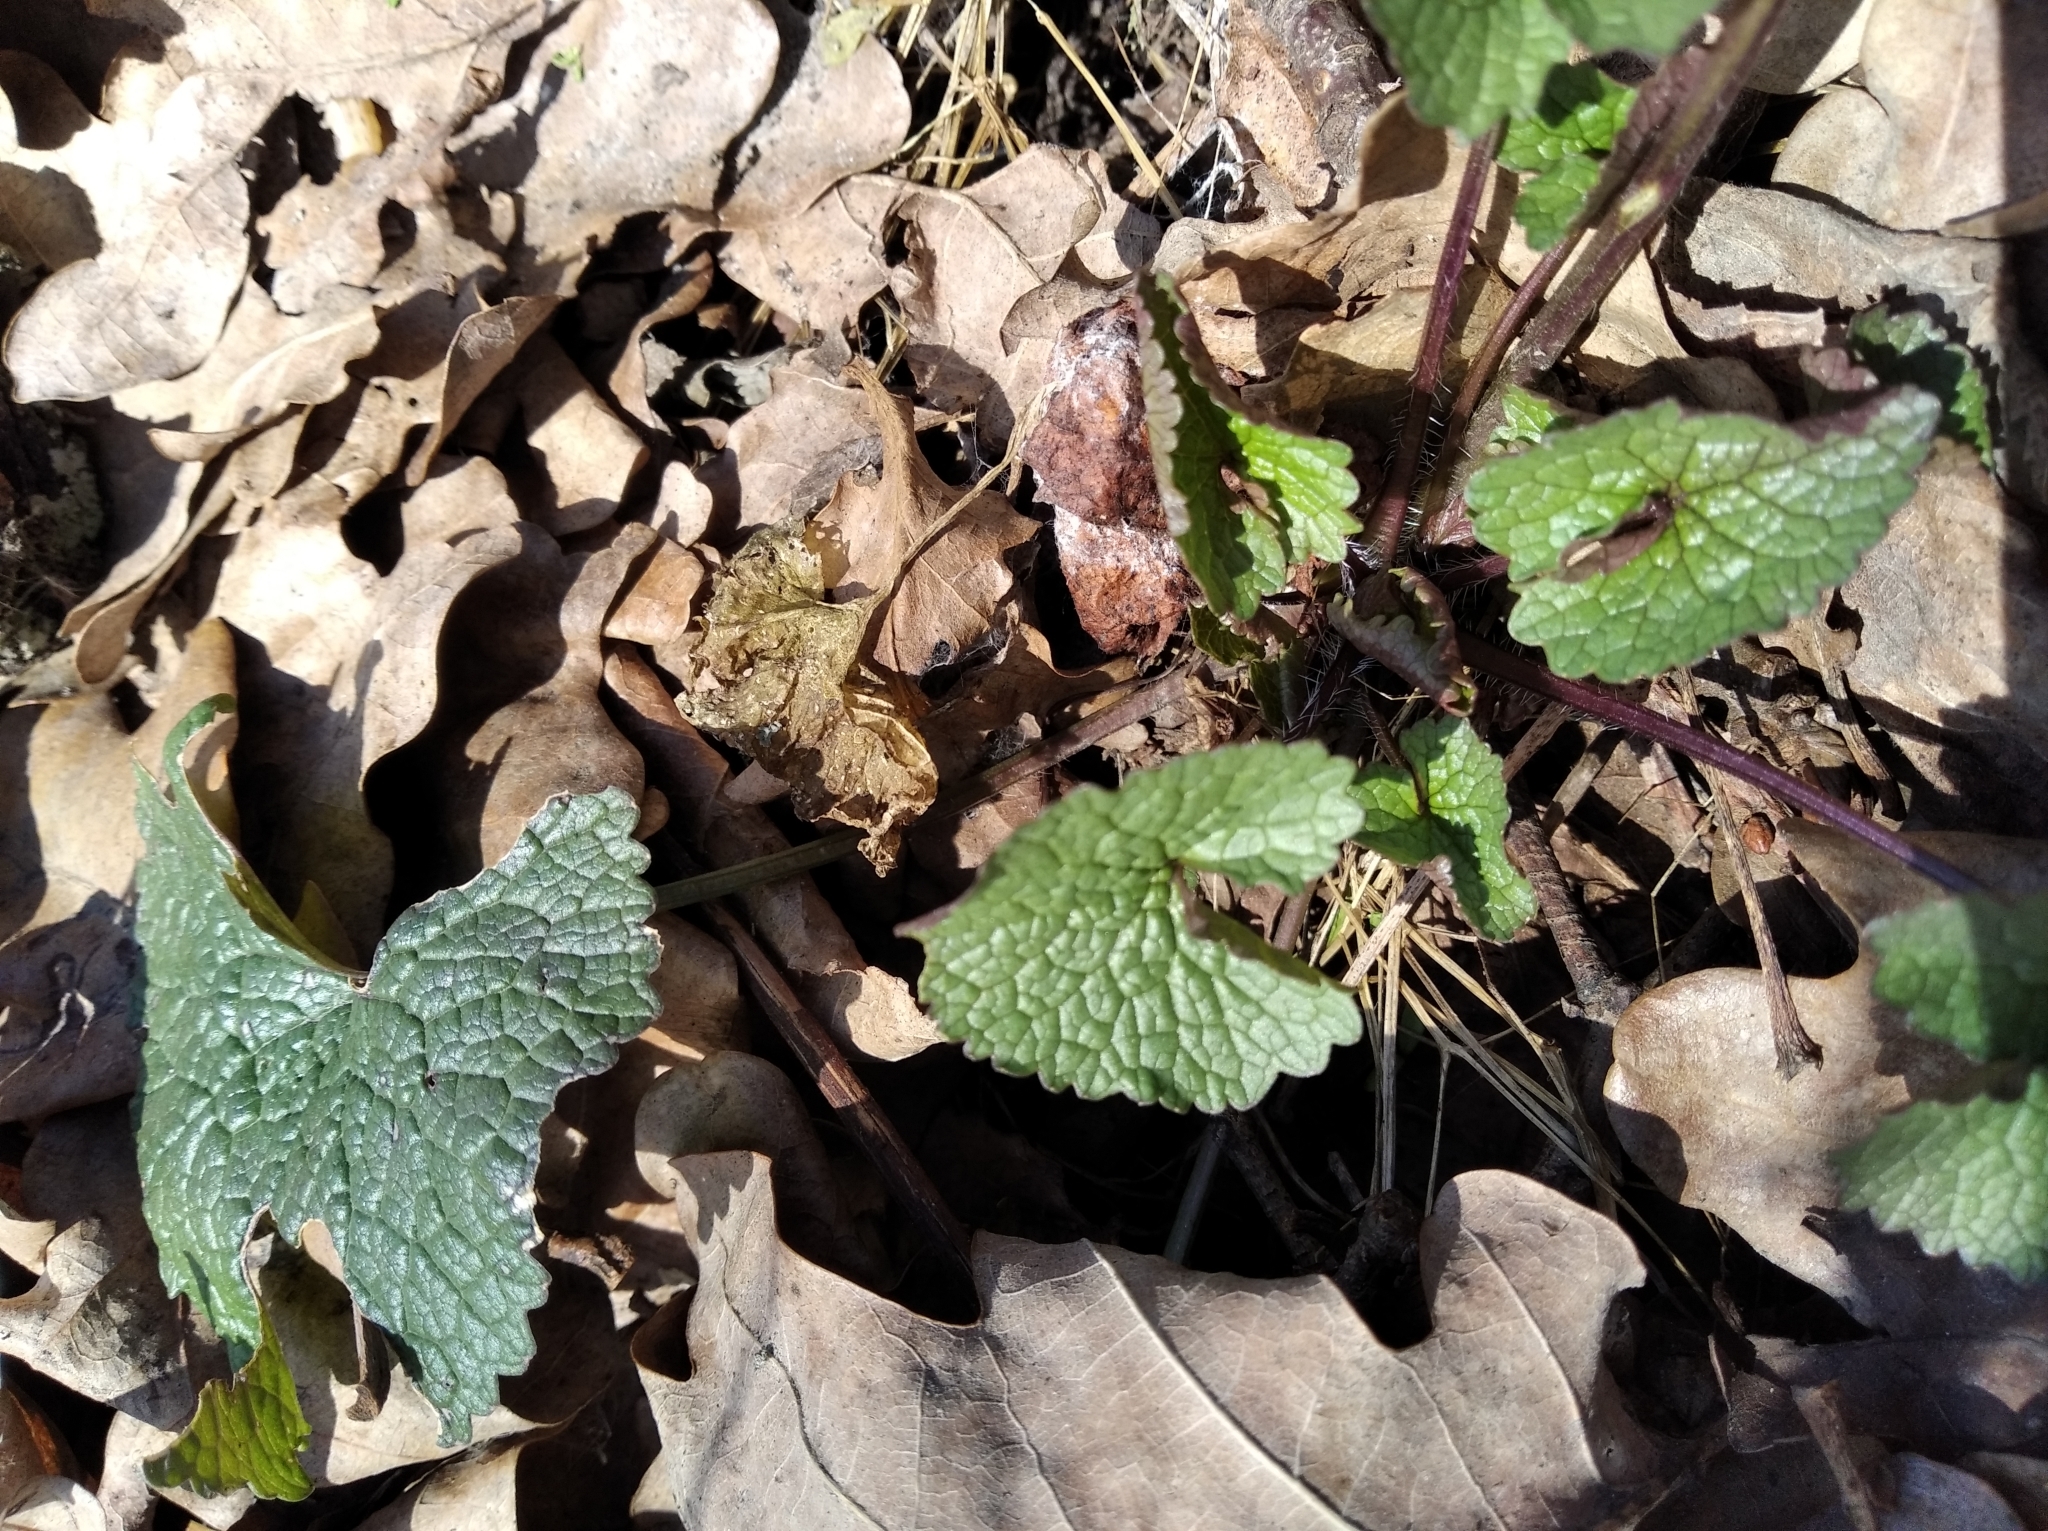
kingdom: Plantae
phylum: Tracheophyta
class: Magnoliopsida
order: Brassicales
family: Brassicaceae
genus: Alliaria
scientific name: Alliaria petiolata
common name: Garlic mustard
